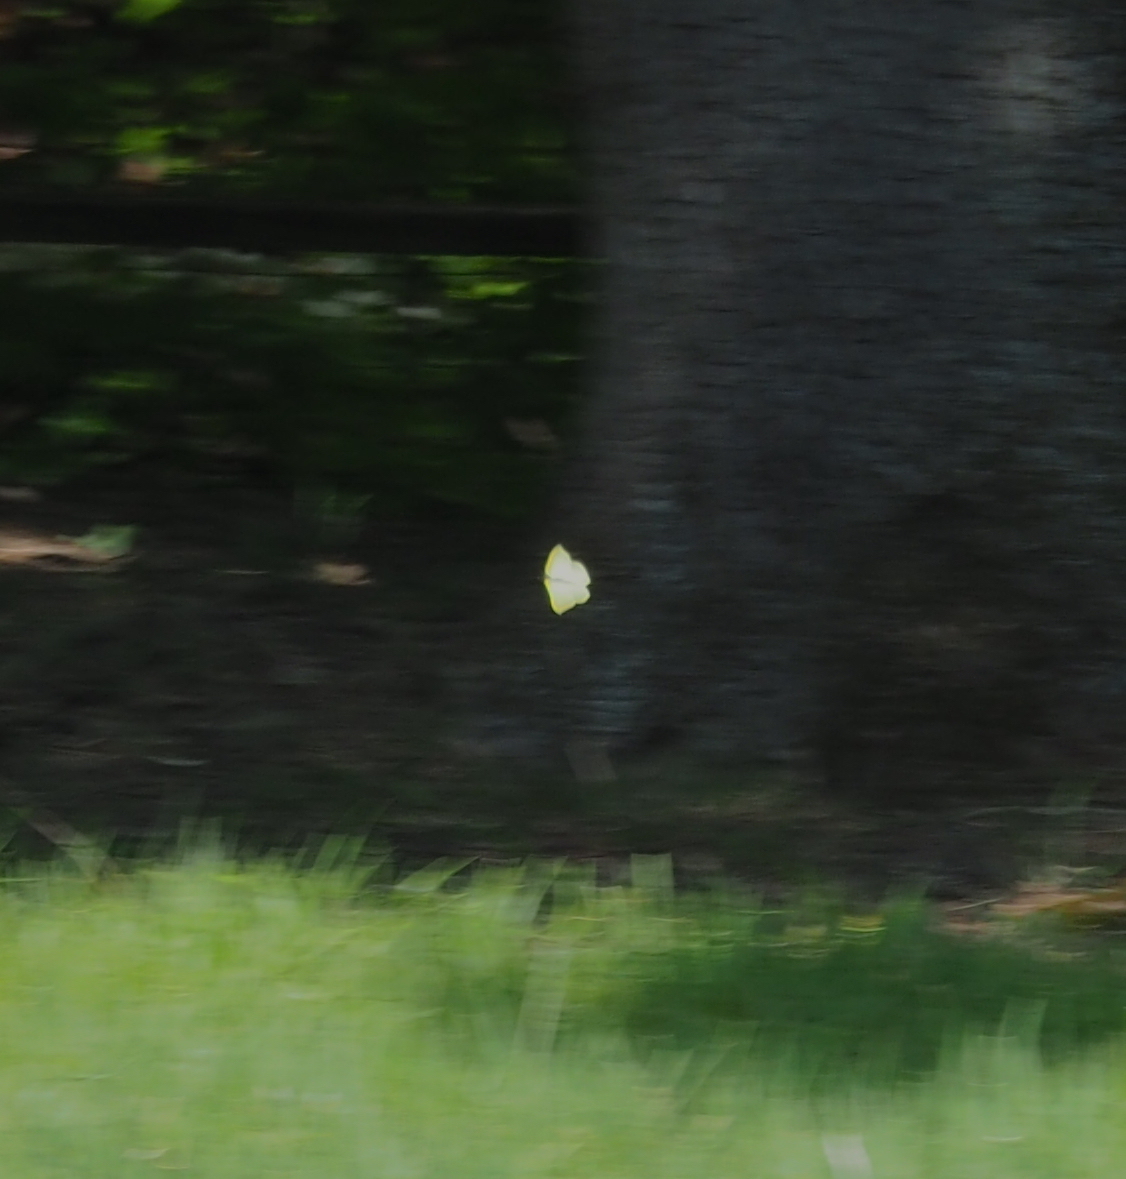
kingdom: Animalia
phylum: Arthropoda
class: Insecta
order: Lepidoptera
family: Pieridae
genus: Gonepteryx
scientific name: Gonepteryx rhamni
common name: Brimstone
